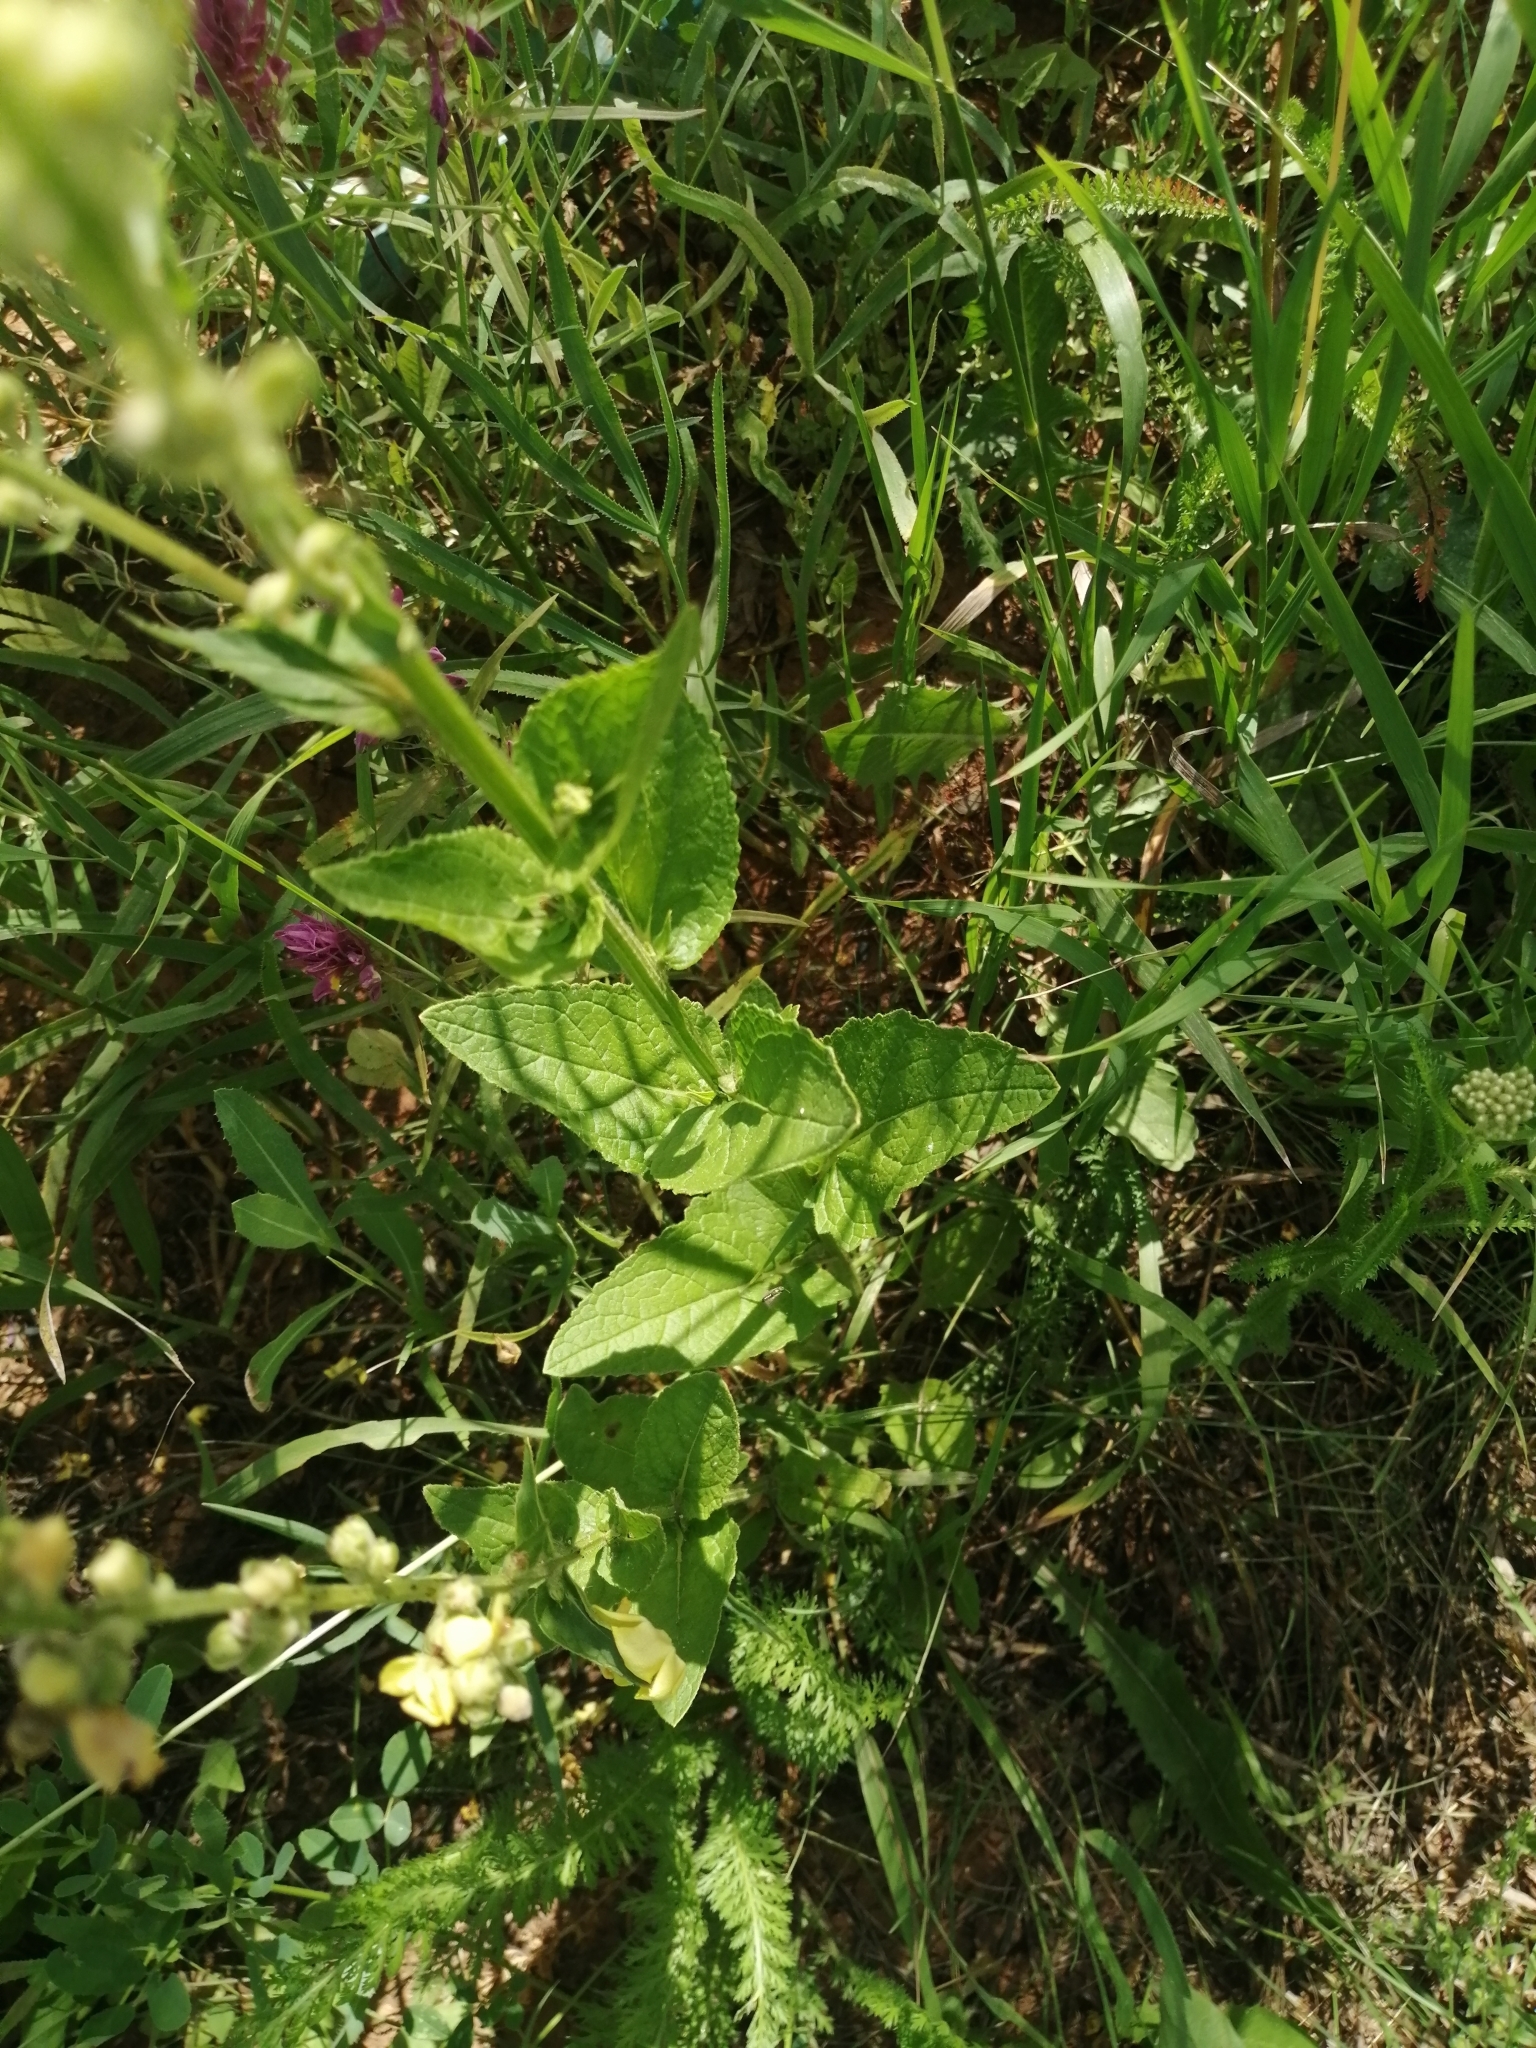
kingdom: Plantae
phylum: Tracheophyta
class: Magnoliopsida
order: Lamiales
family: Scrophulariaceae
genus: Verbascum
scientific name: Verbascum chaixii
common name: Nettle-leaved mullein
